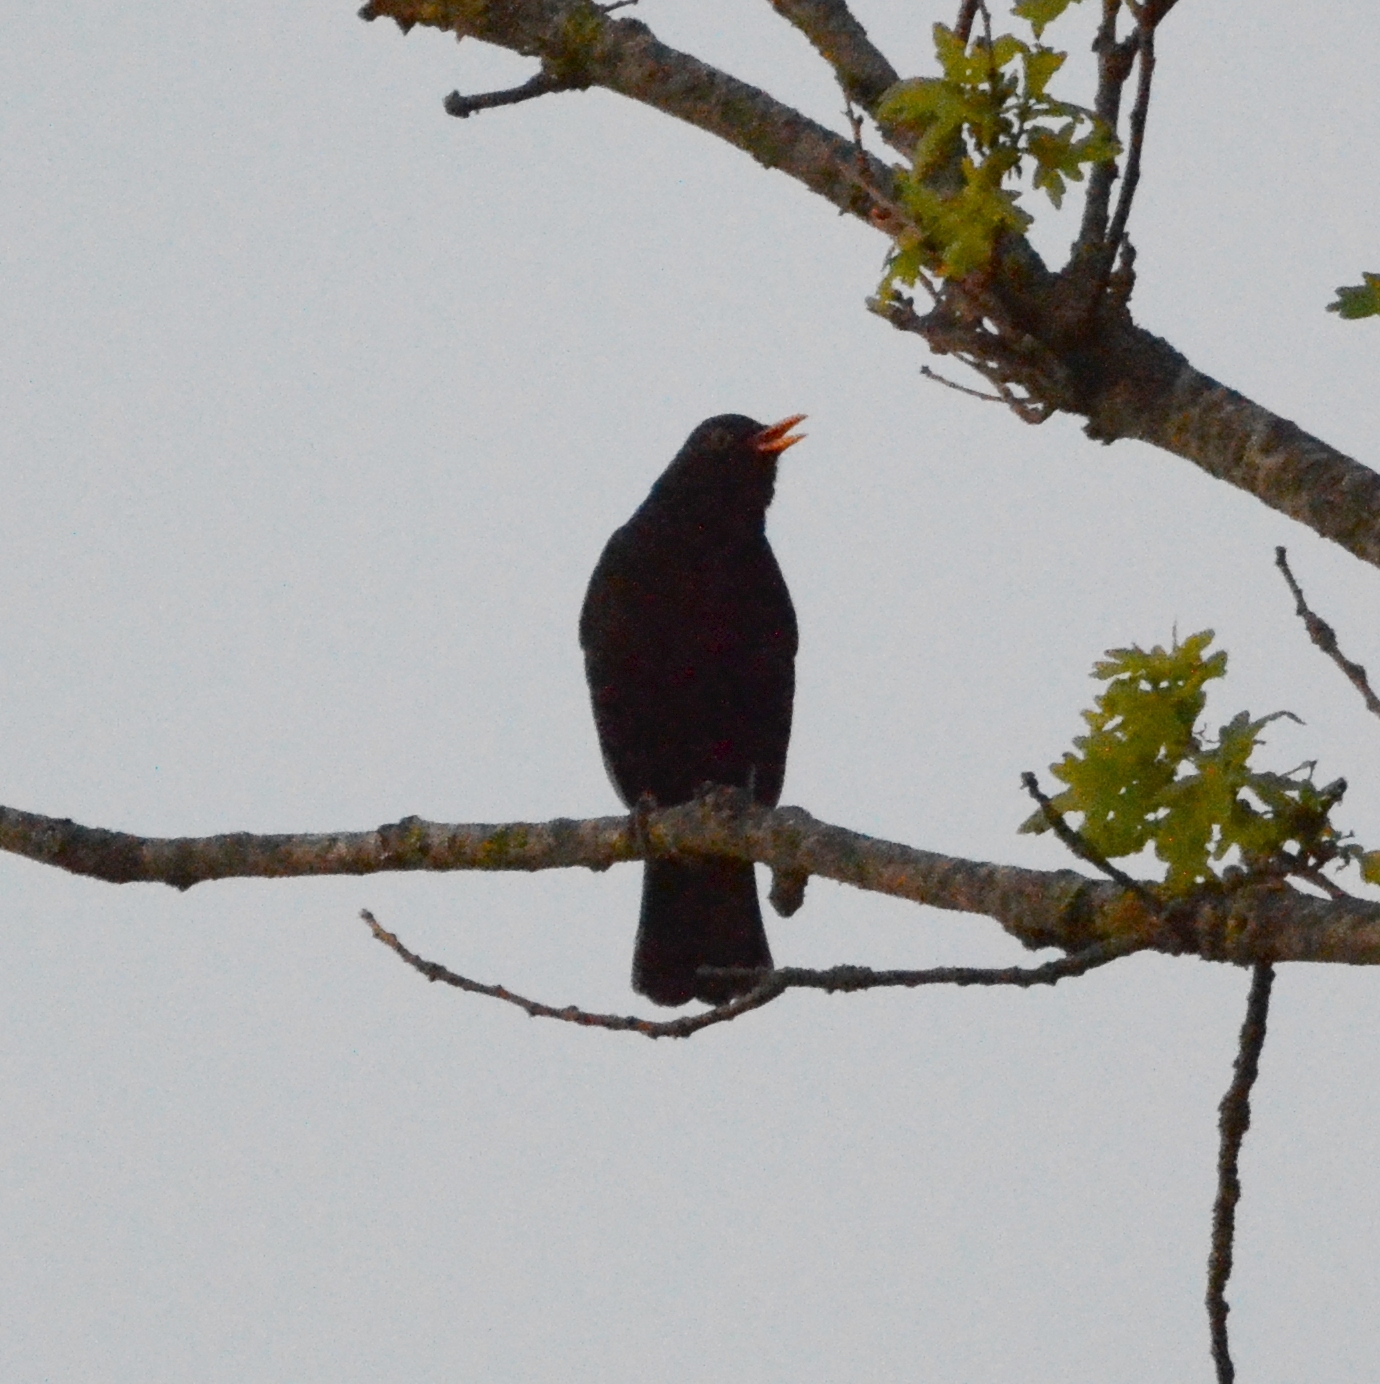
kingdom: Animalia
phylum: Chordata
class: Aves
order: Passeriformes
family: Turdidae
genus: Turdus
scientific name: Turdus merula
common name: Common blackbird
